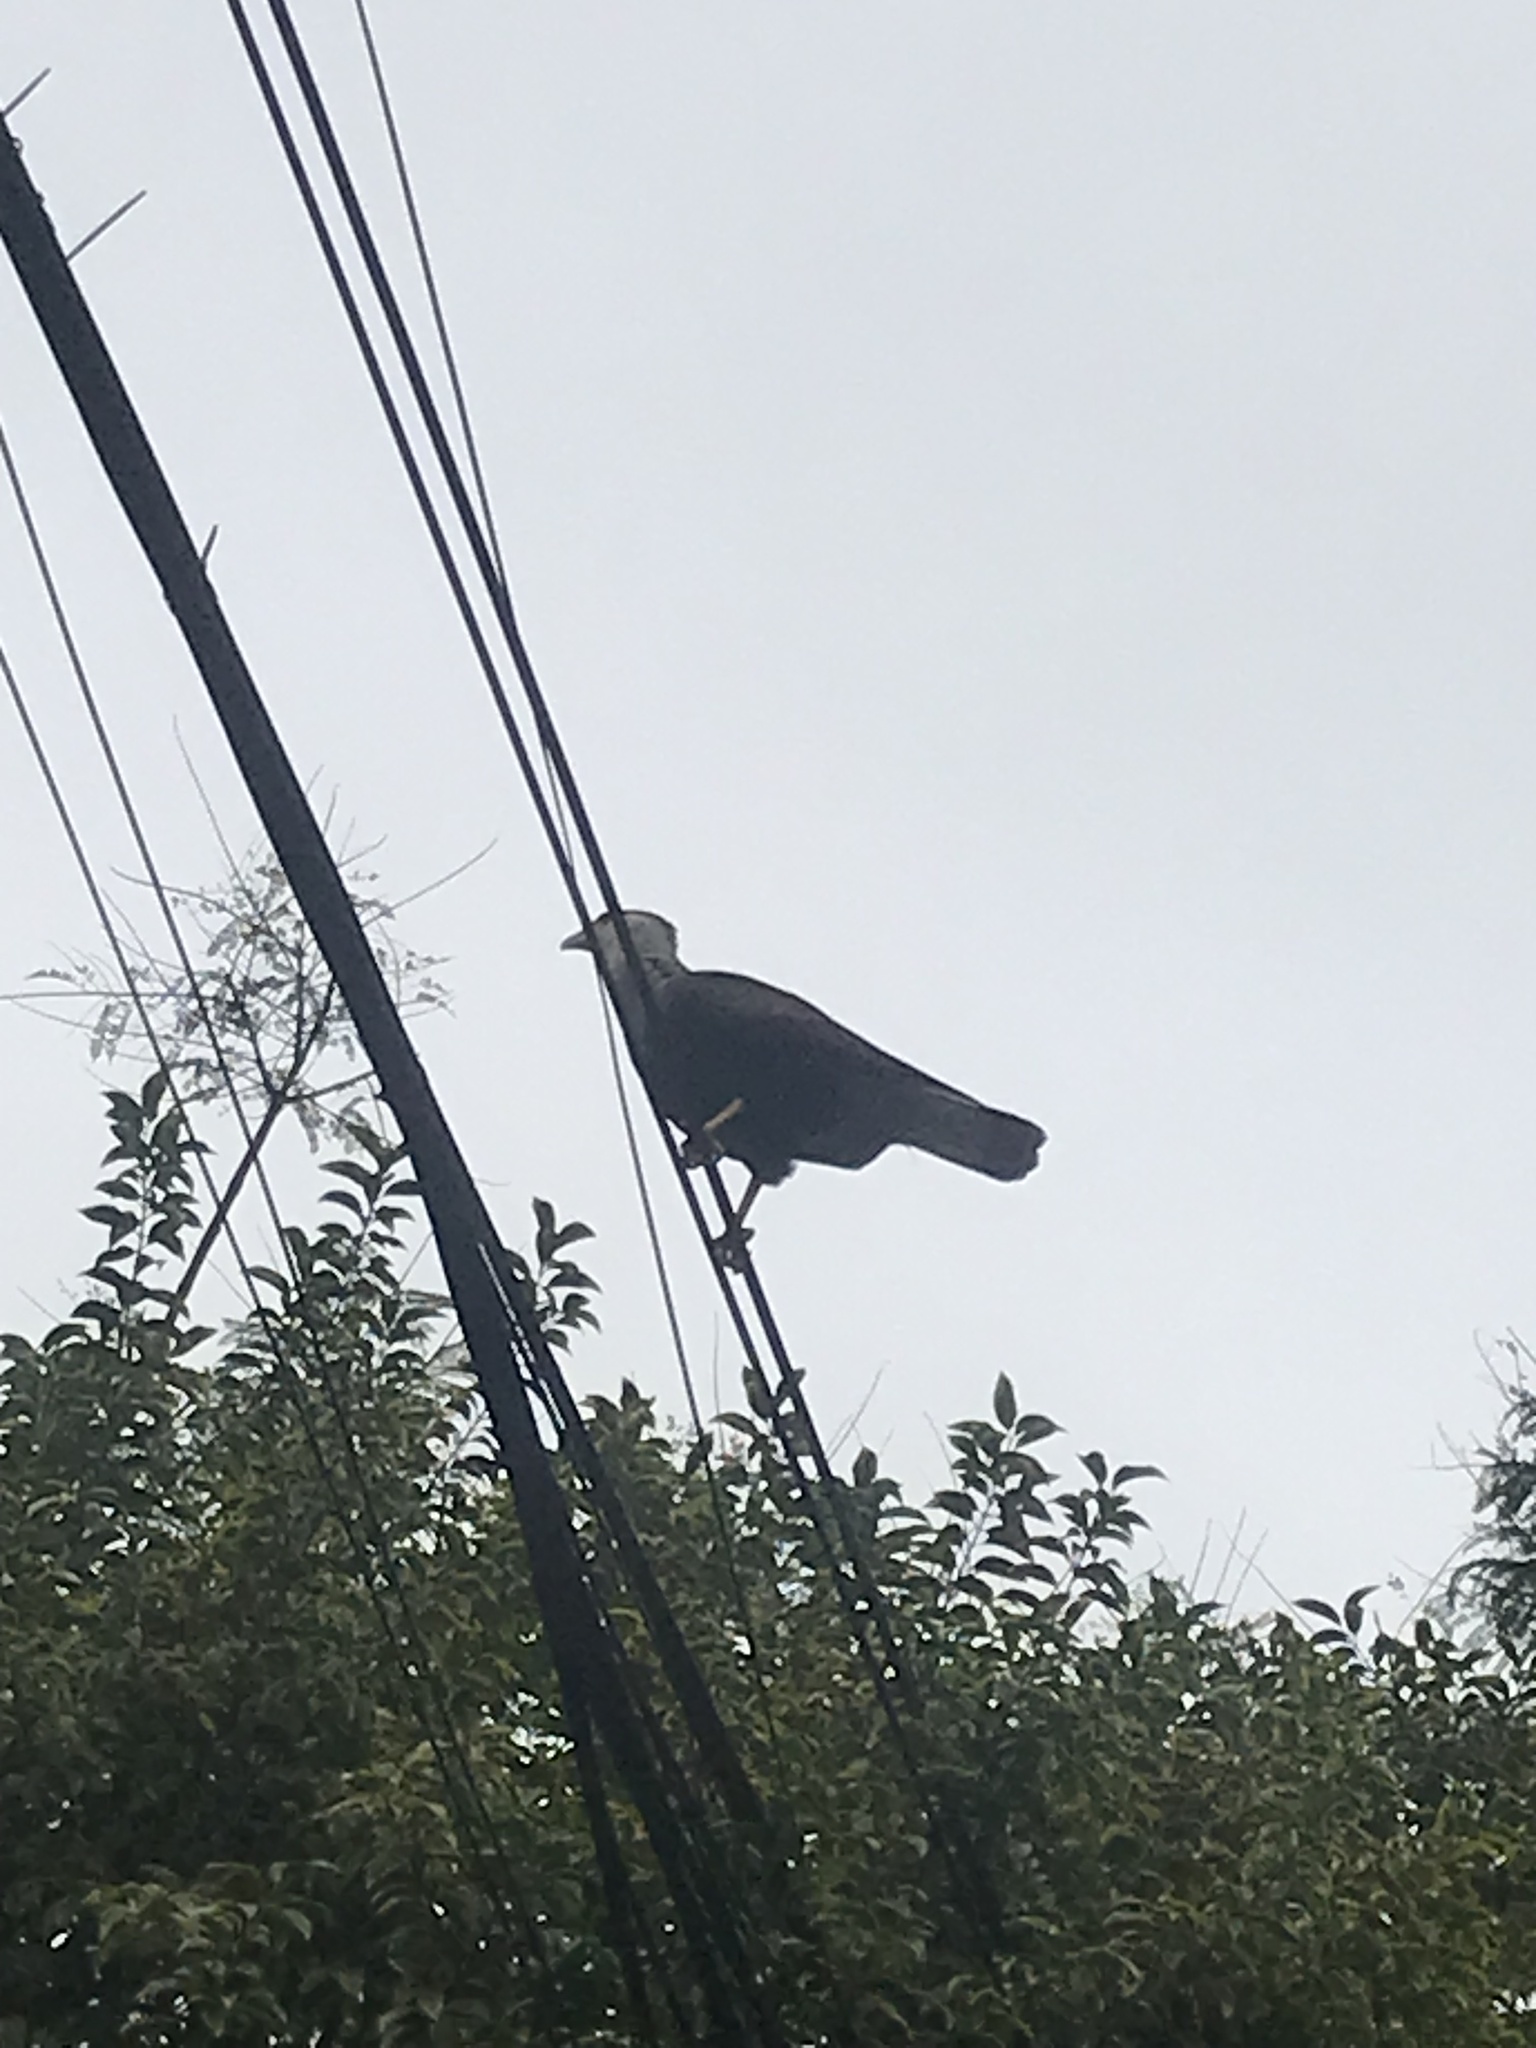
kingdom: Animalia
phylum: Chordata
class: Aves
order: Falconiformes
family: Falconidae
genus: Caracara
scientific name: Caracara plancus
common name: Southern caracara
